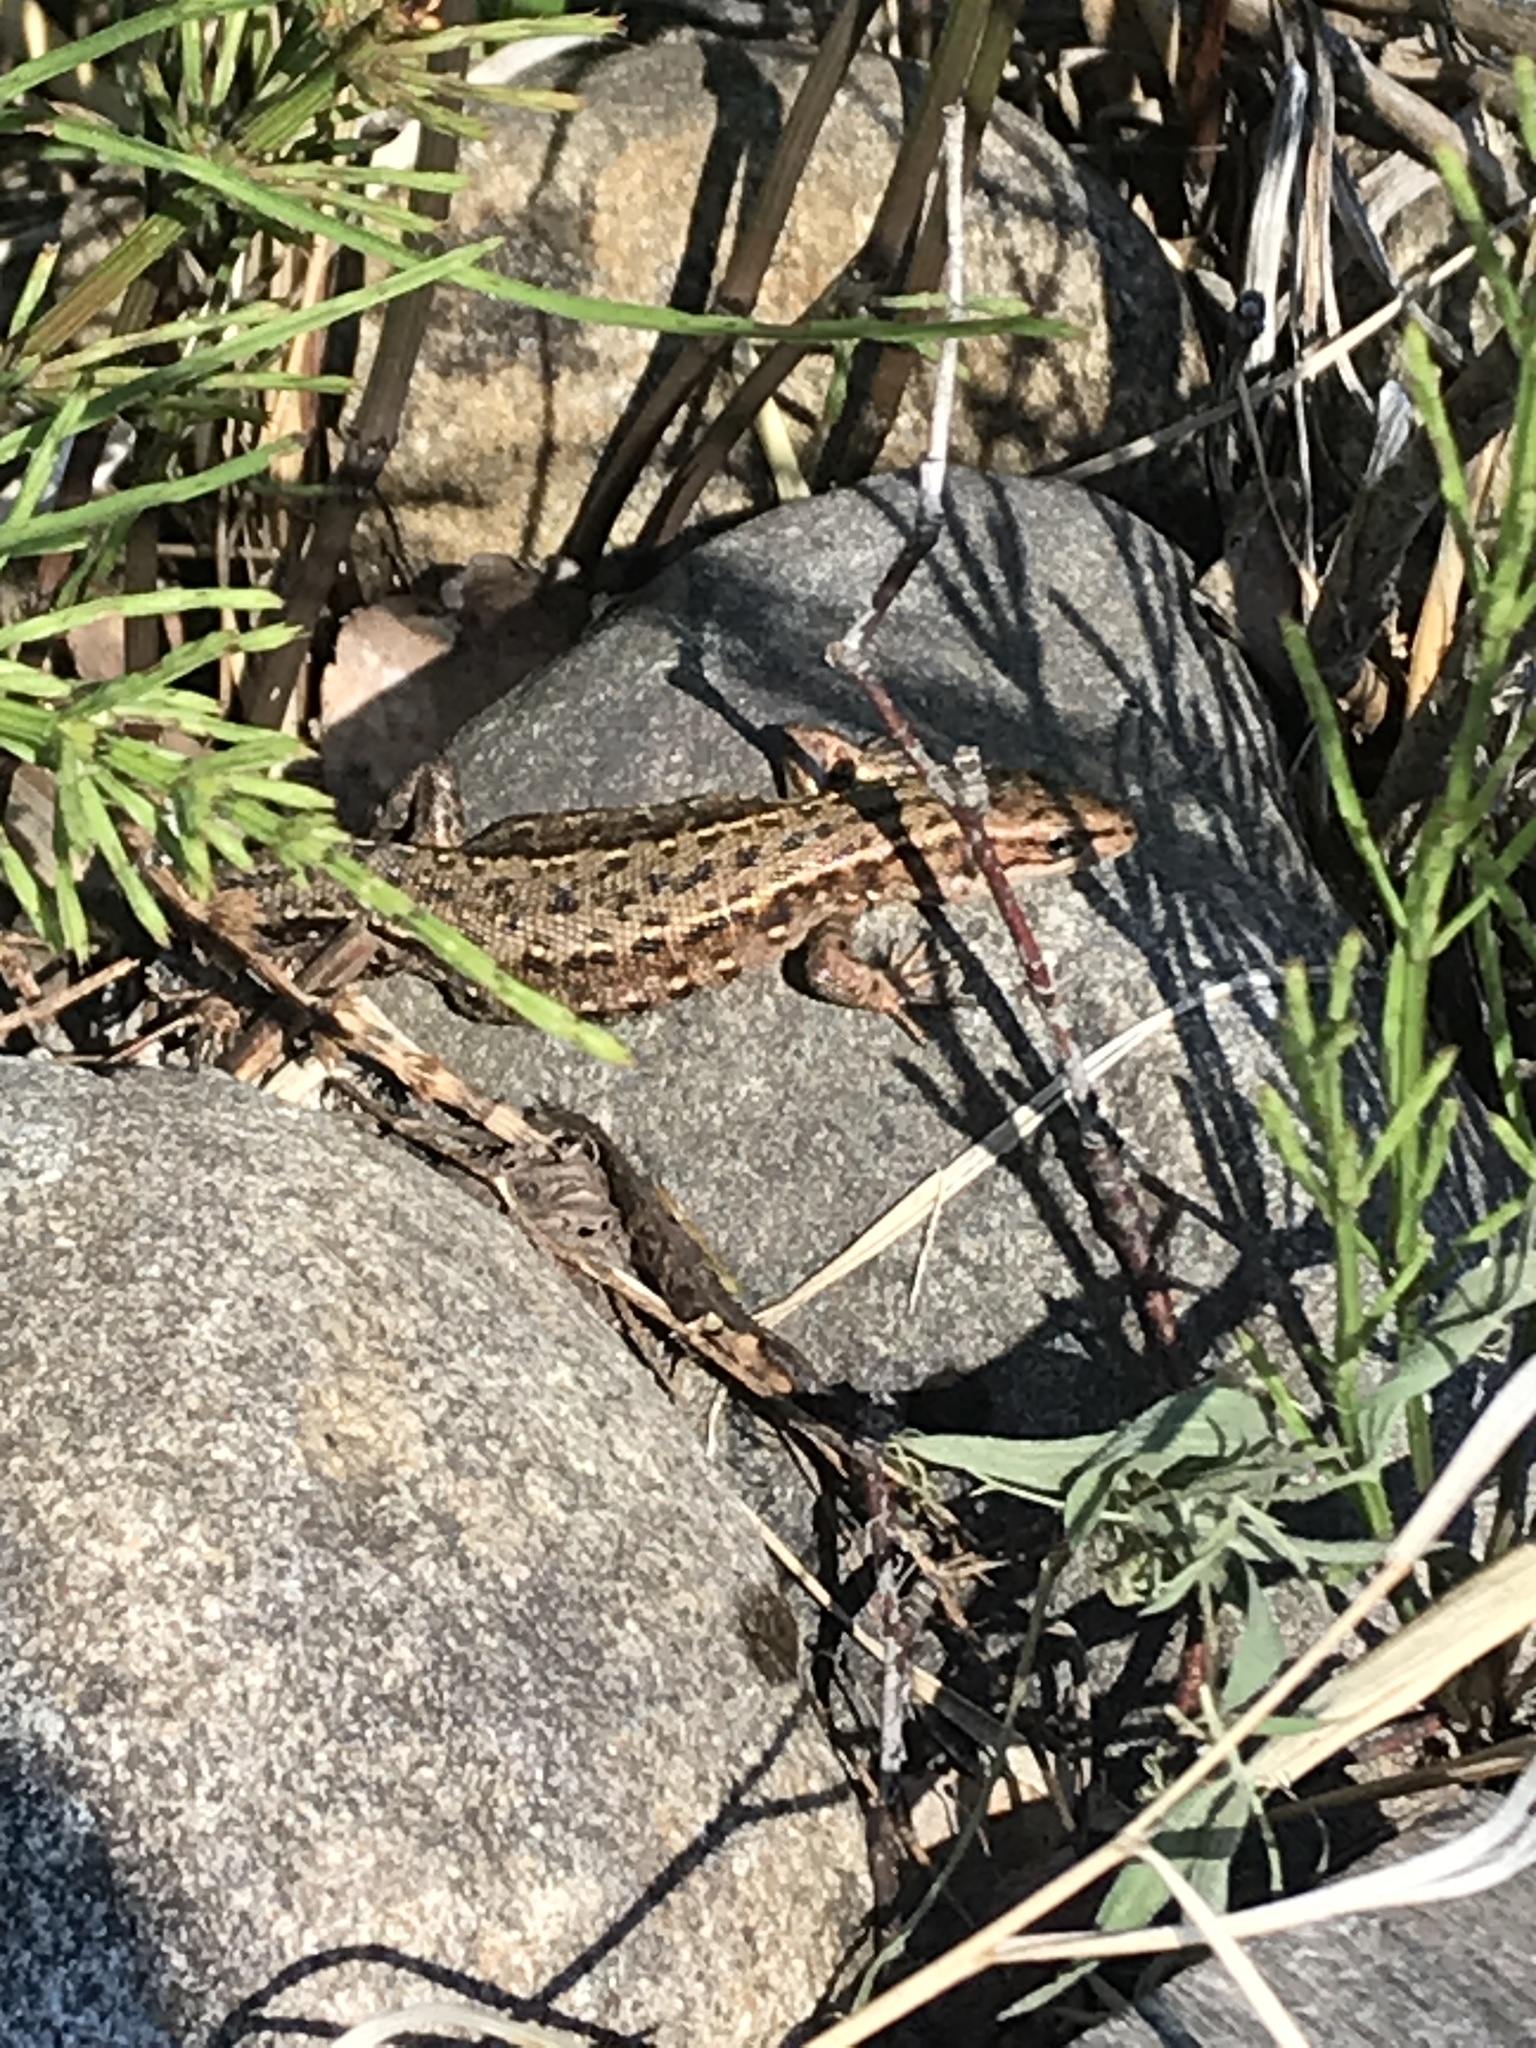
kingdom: Animalia
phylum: Chordata
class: Squamata
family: Lacertidae
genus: Zootoca
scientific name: Zootoca vivipara
